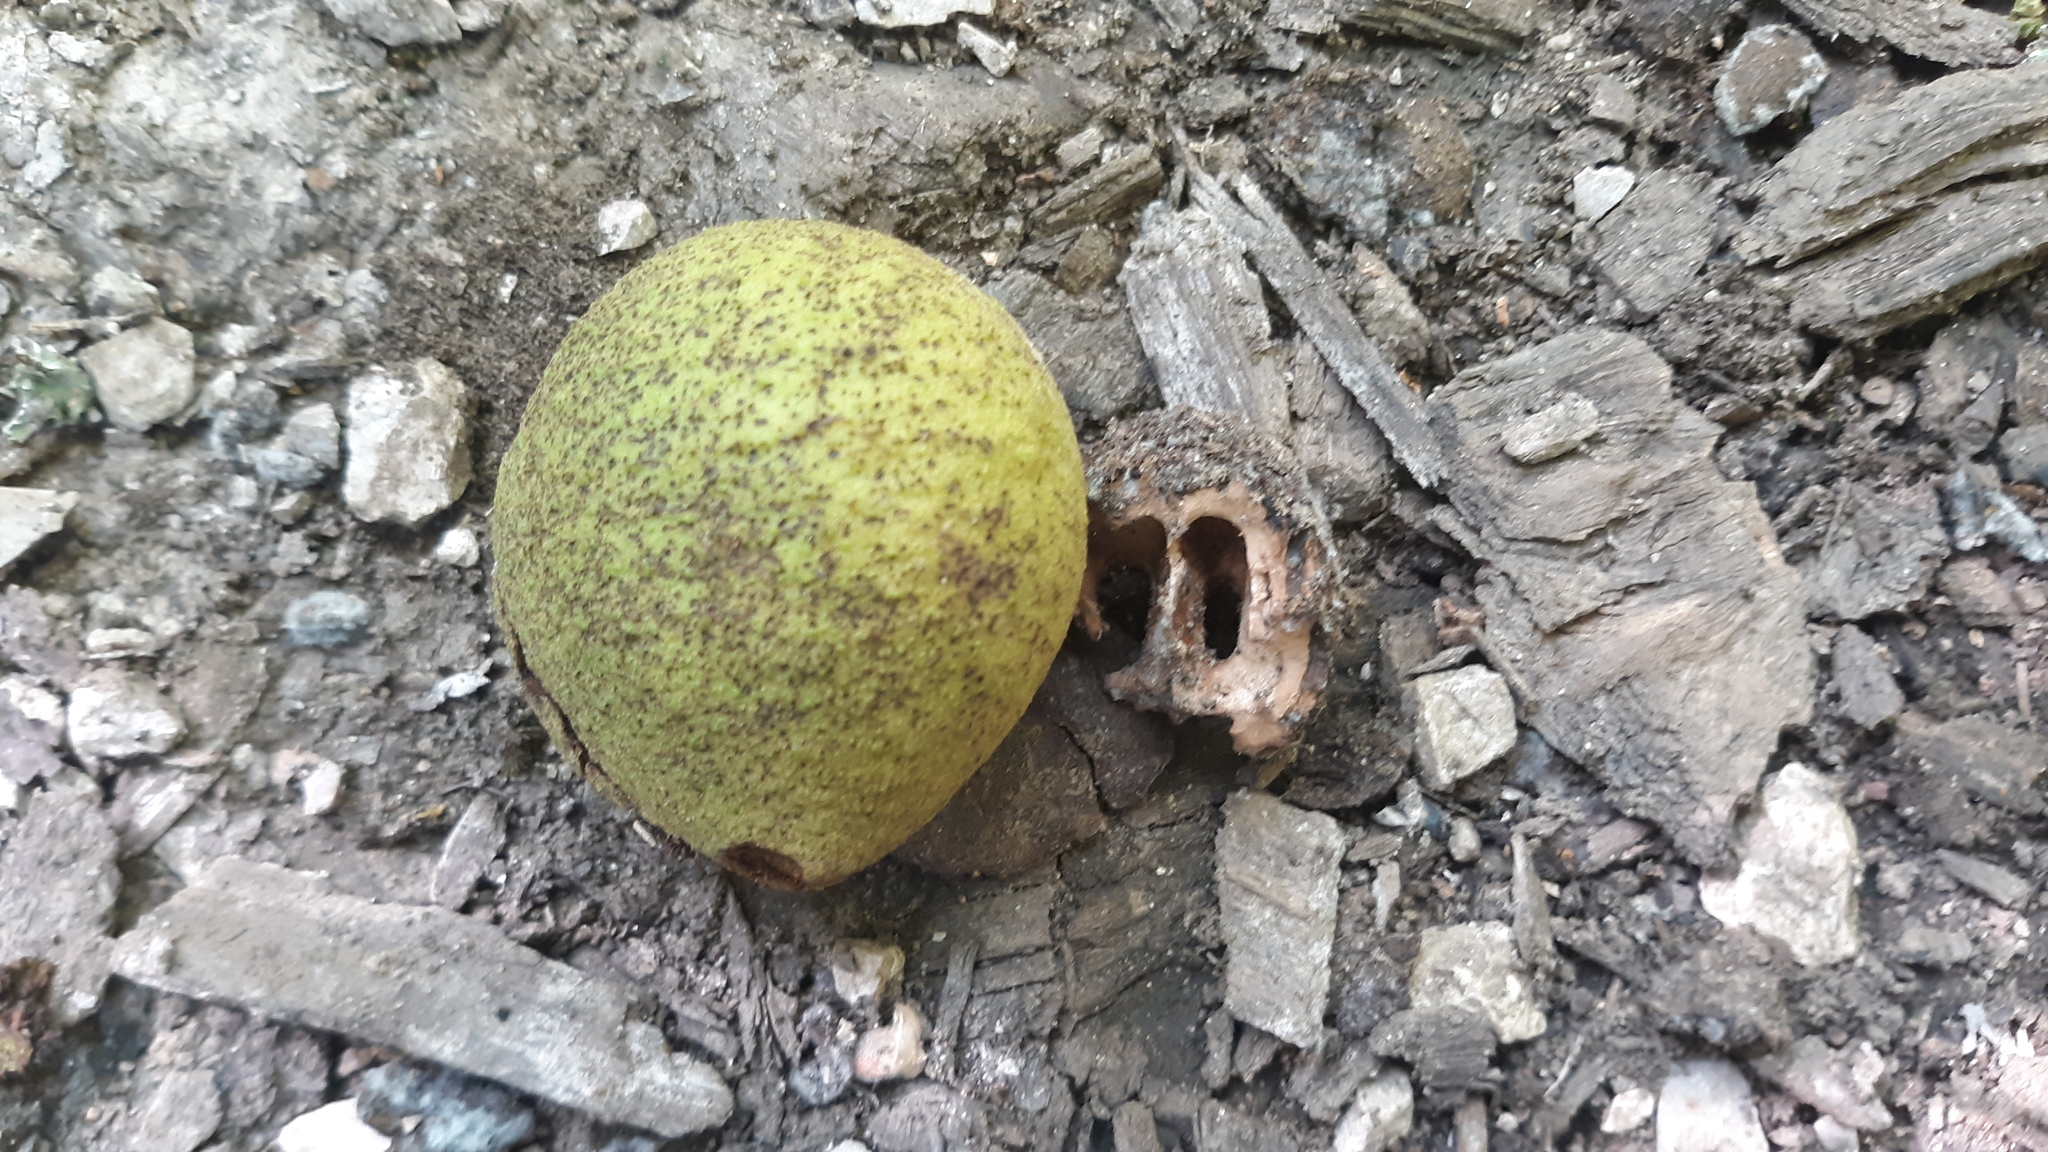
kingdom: Plantae
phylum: Tracheophyta
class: Magnoliopsida
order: Fagales
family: Juglandaceae
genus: Juglans
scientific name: Juglans nigra
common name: Black walnut
